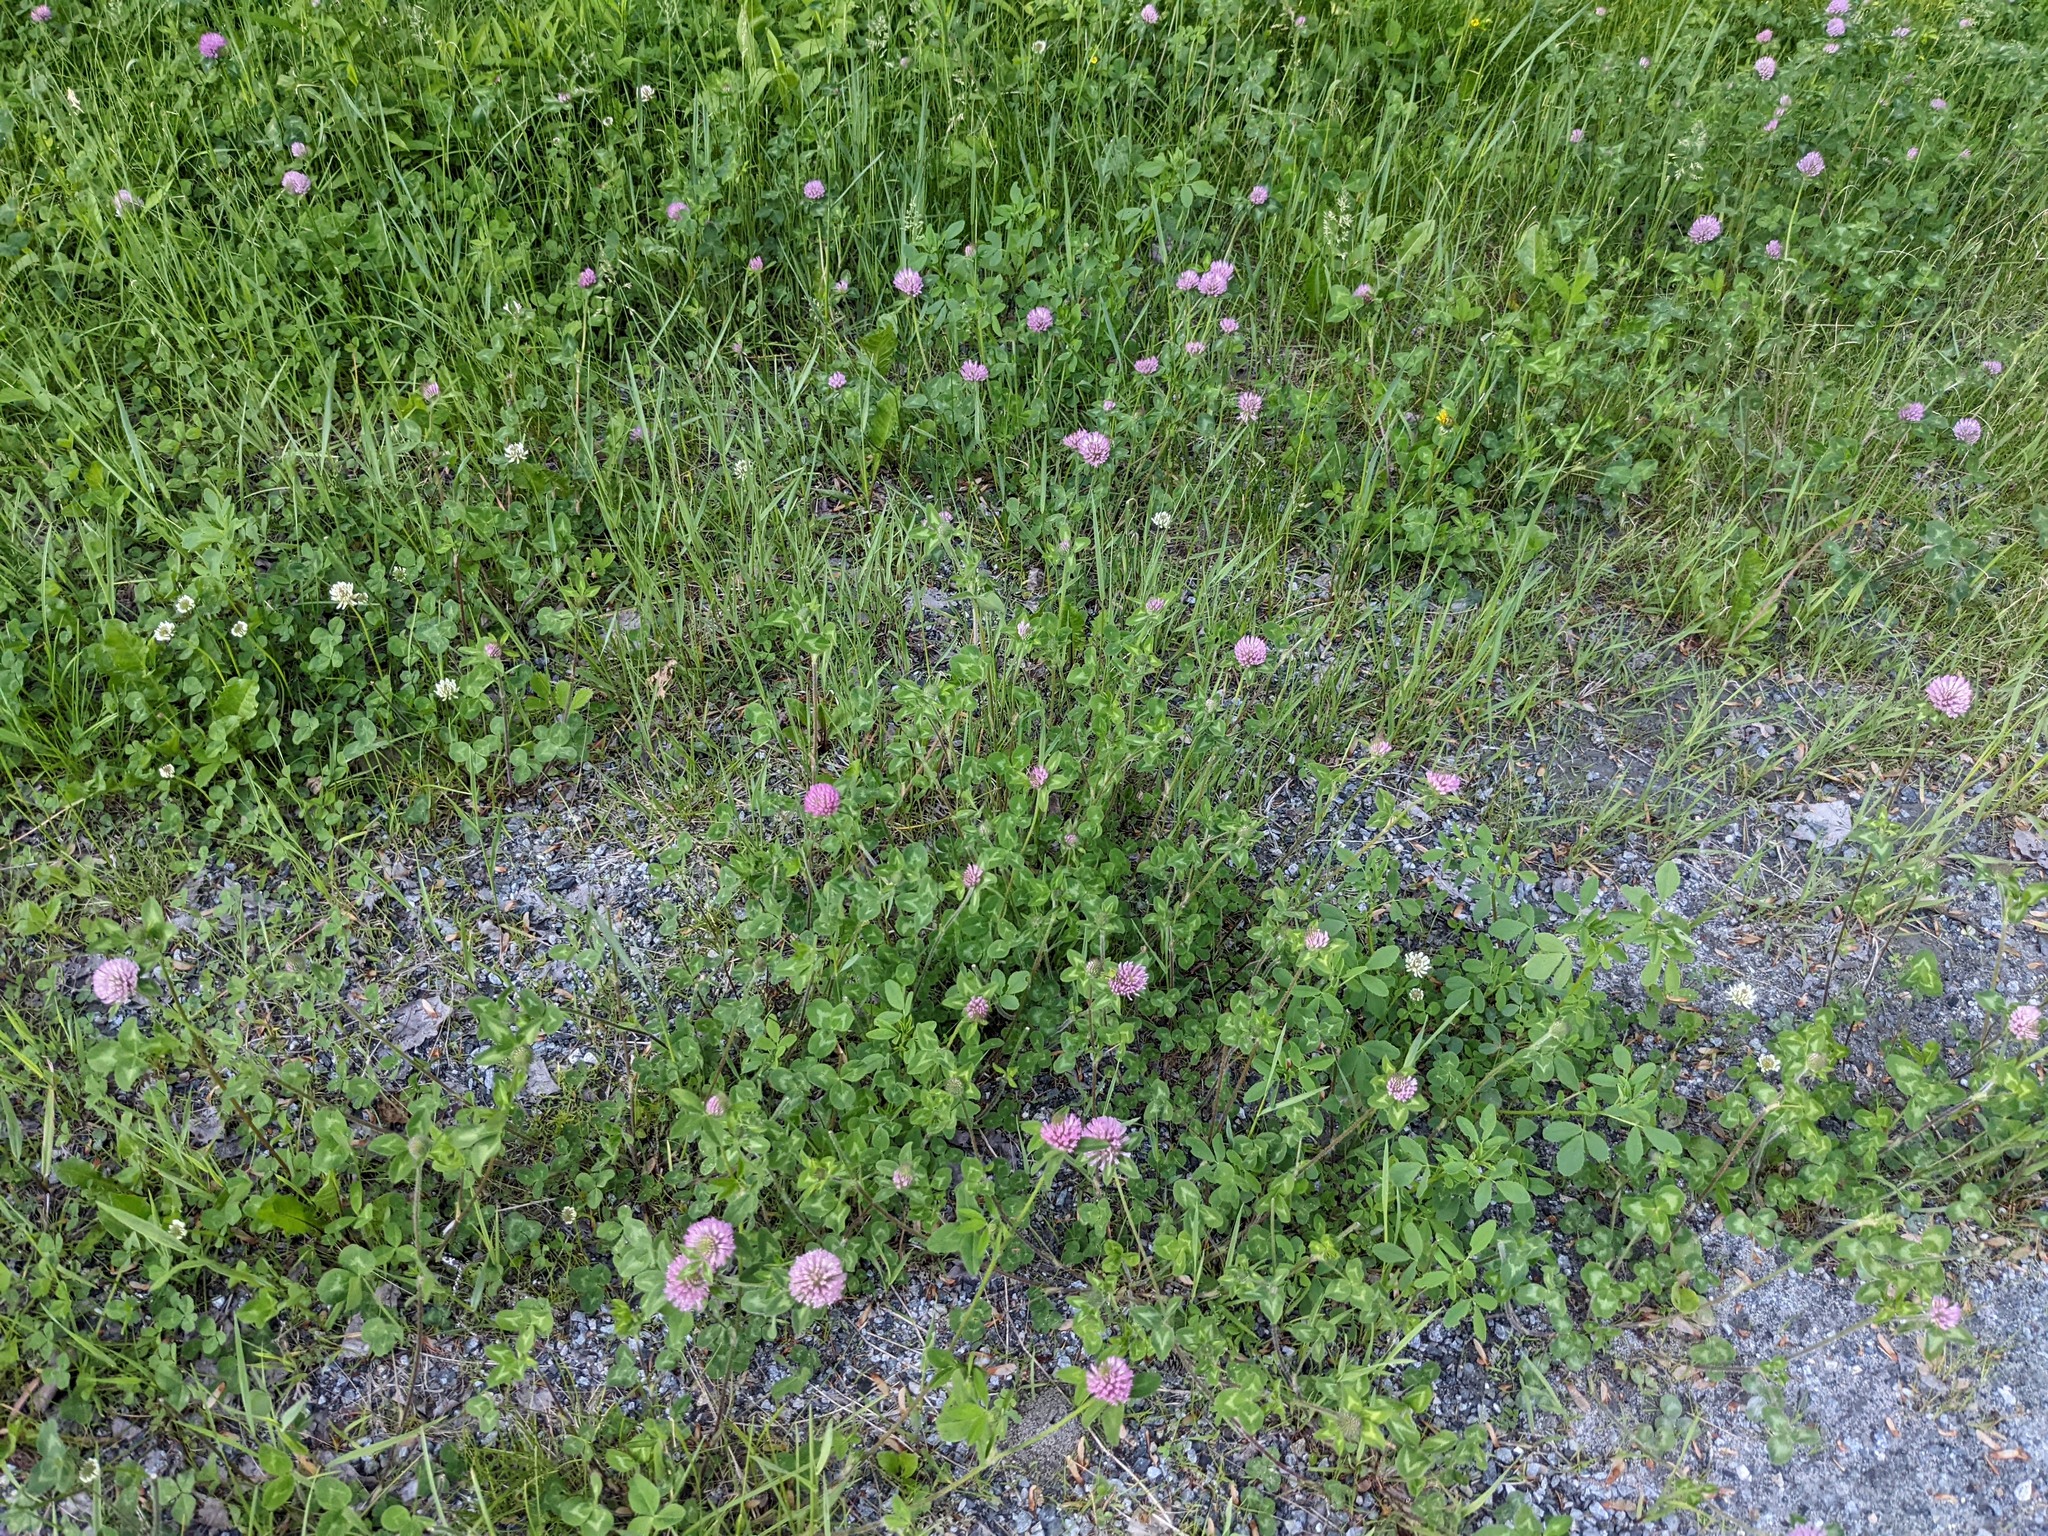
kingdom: Plantae
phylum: Tracheophyta
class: Magnoliopsida
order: Fabales
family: Fabaceae
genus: Trifolium
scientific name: Trifolium pratense
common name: Red clover
